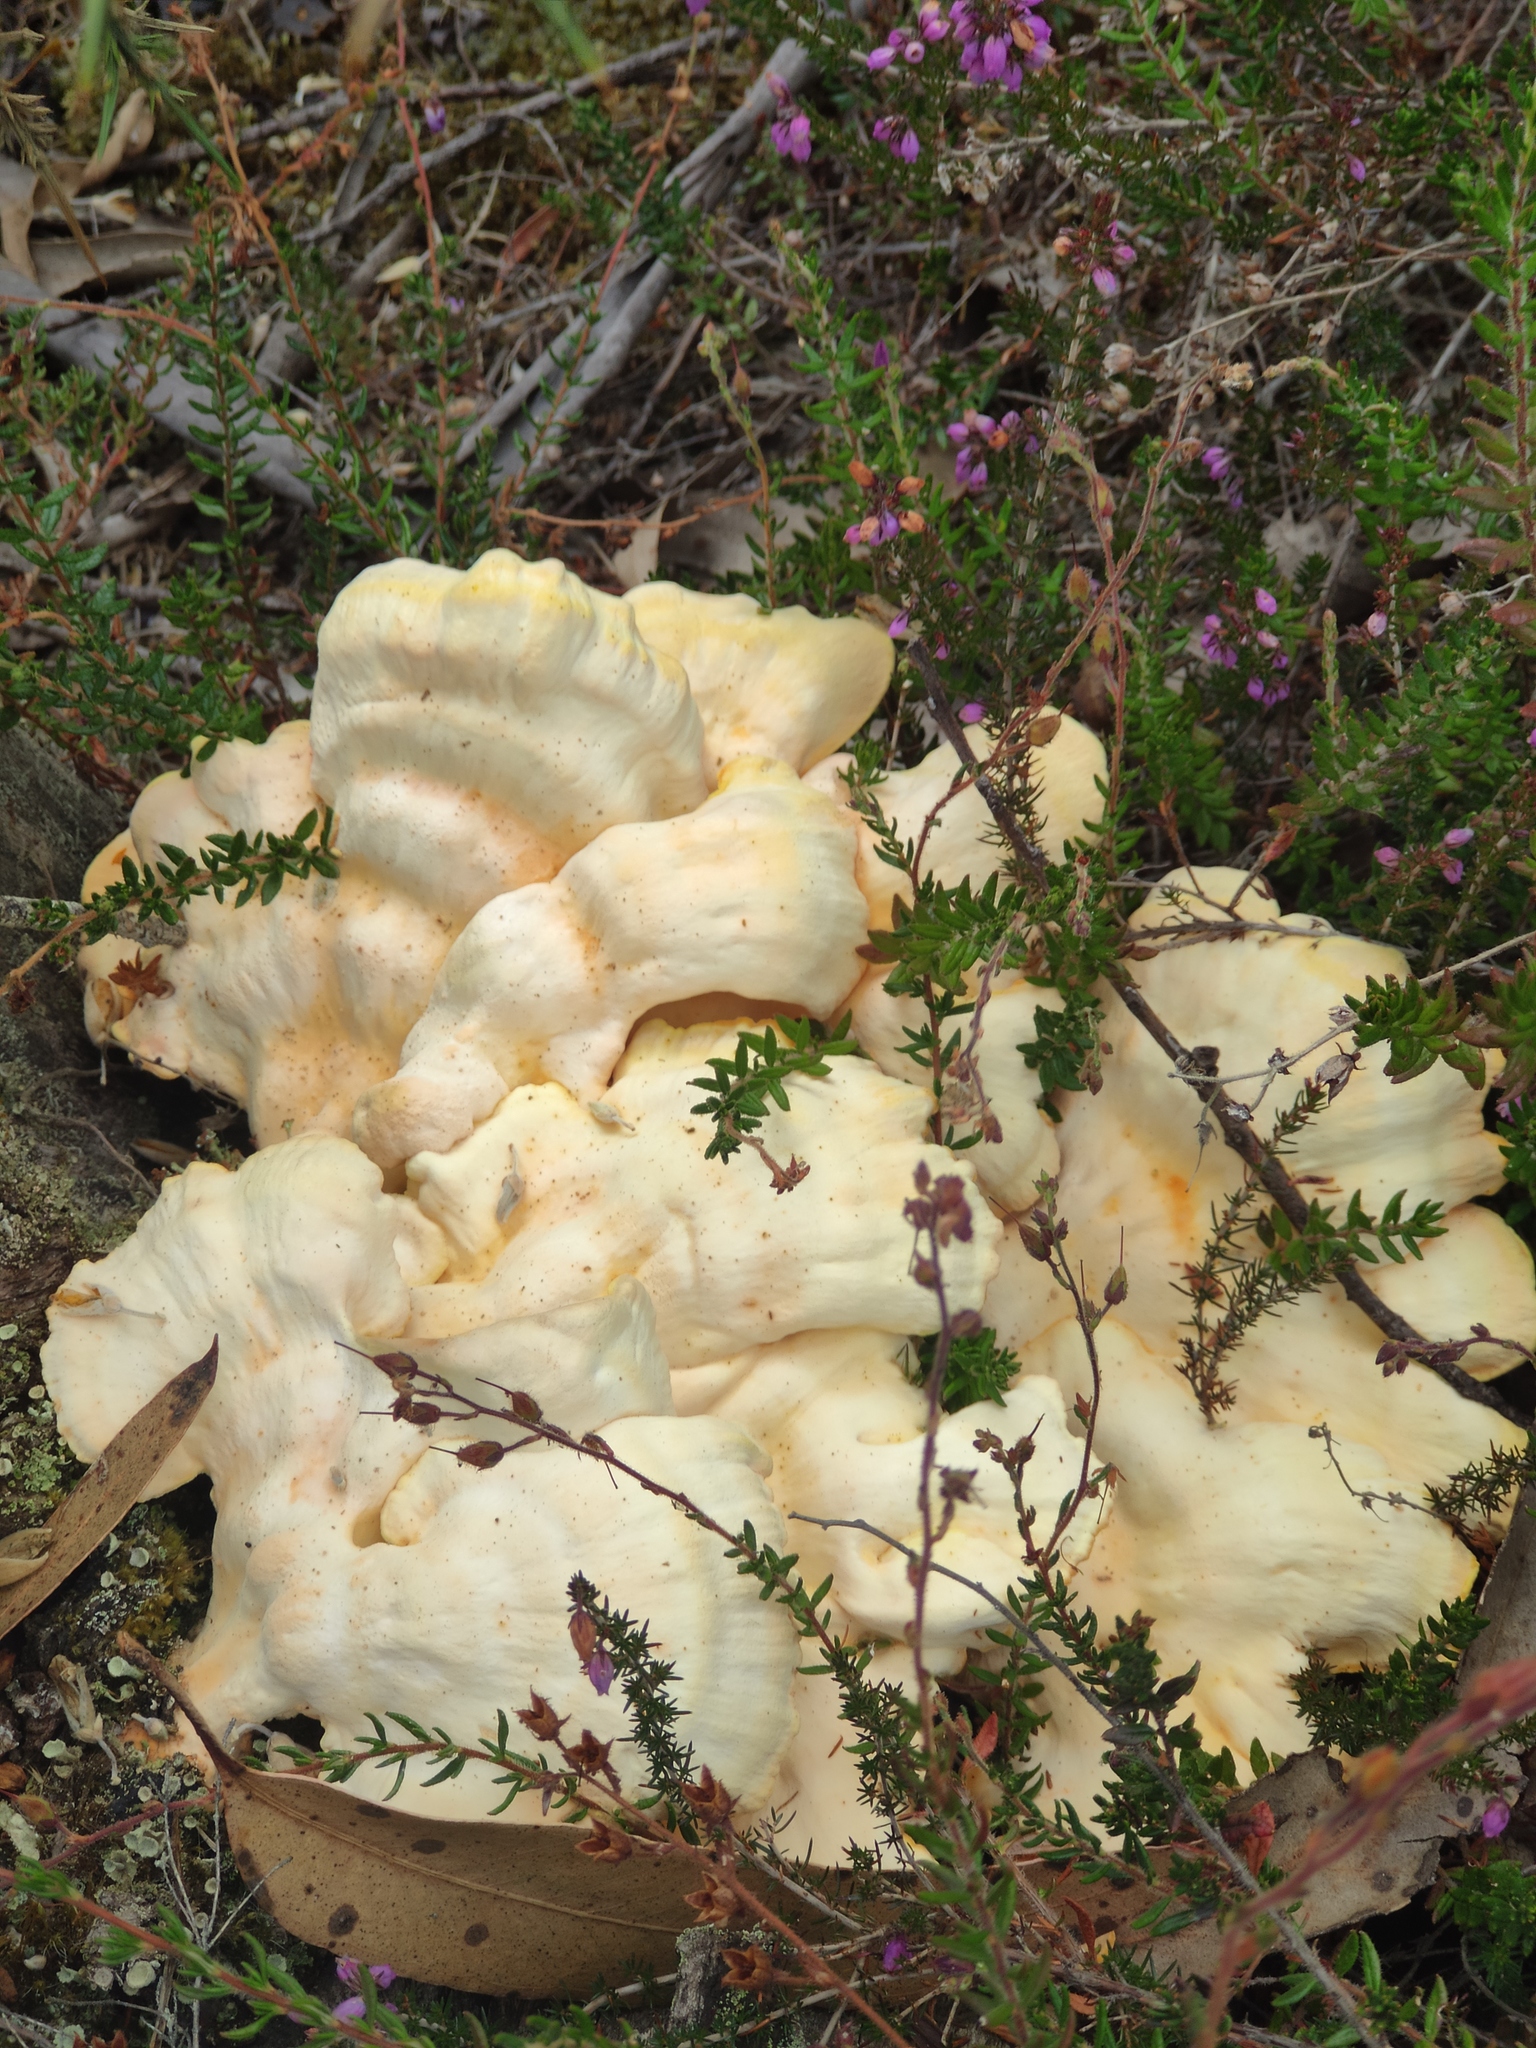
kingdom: Fungi
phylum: Basidiomycota
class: Agaricomycetes
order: Polyporales
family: Laetiporaceae
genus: Laetiporus
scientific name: Laetiporus sulphureus
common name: Chicken of the woods
